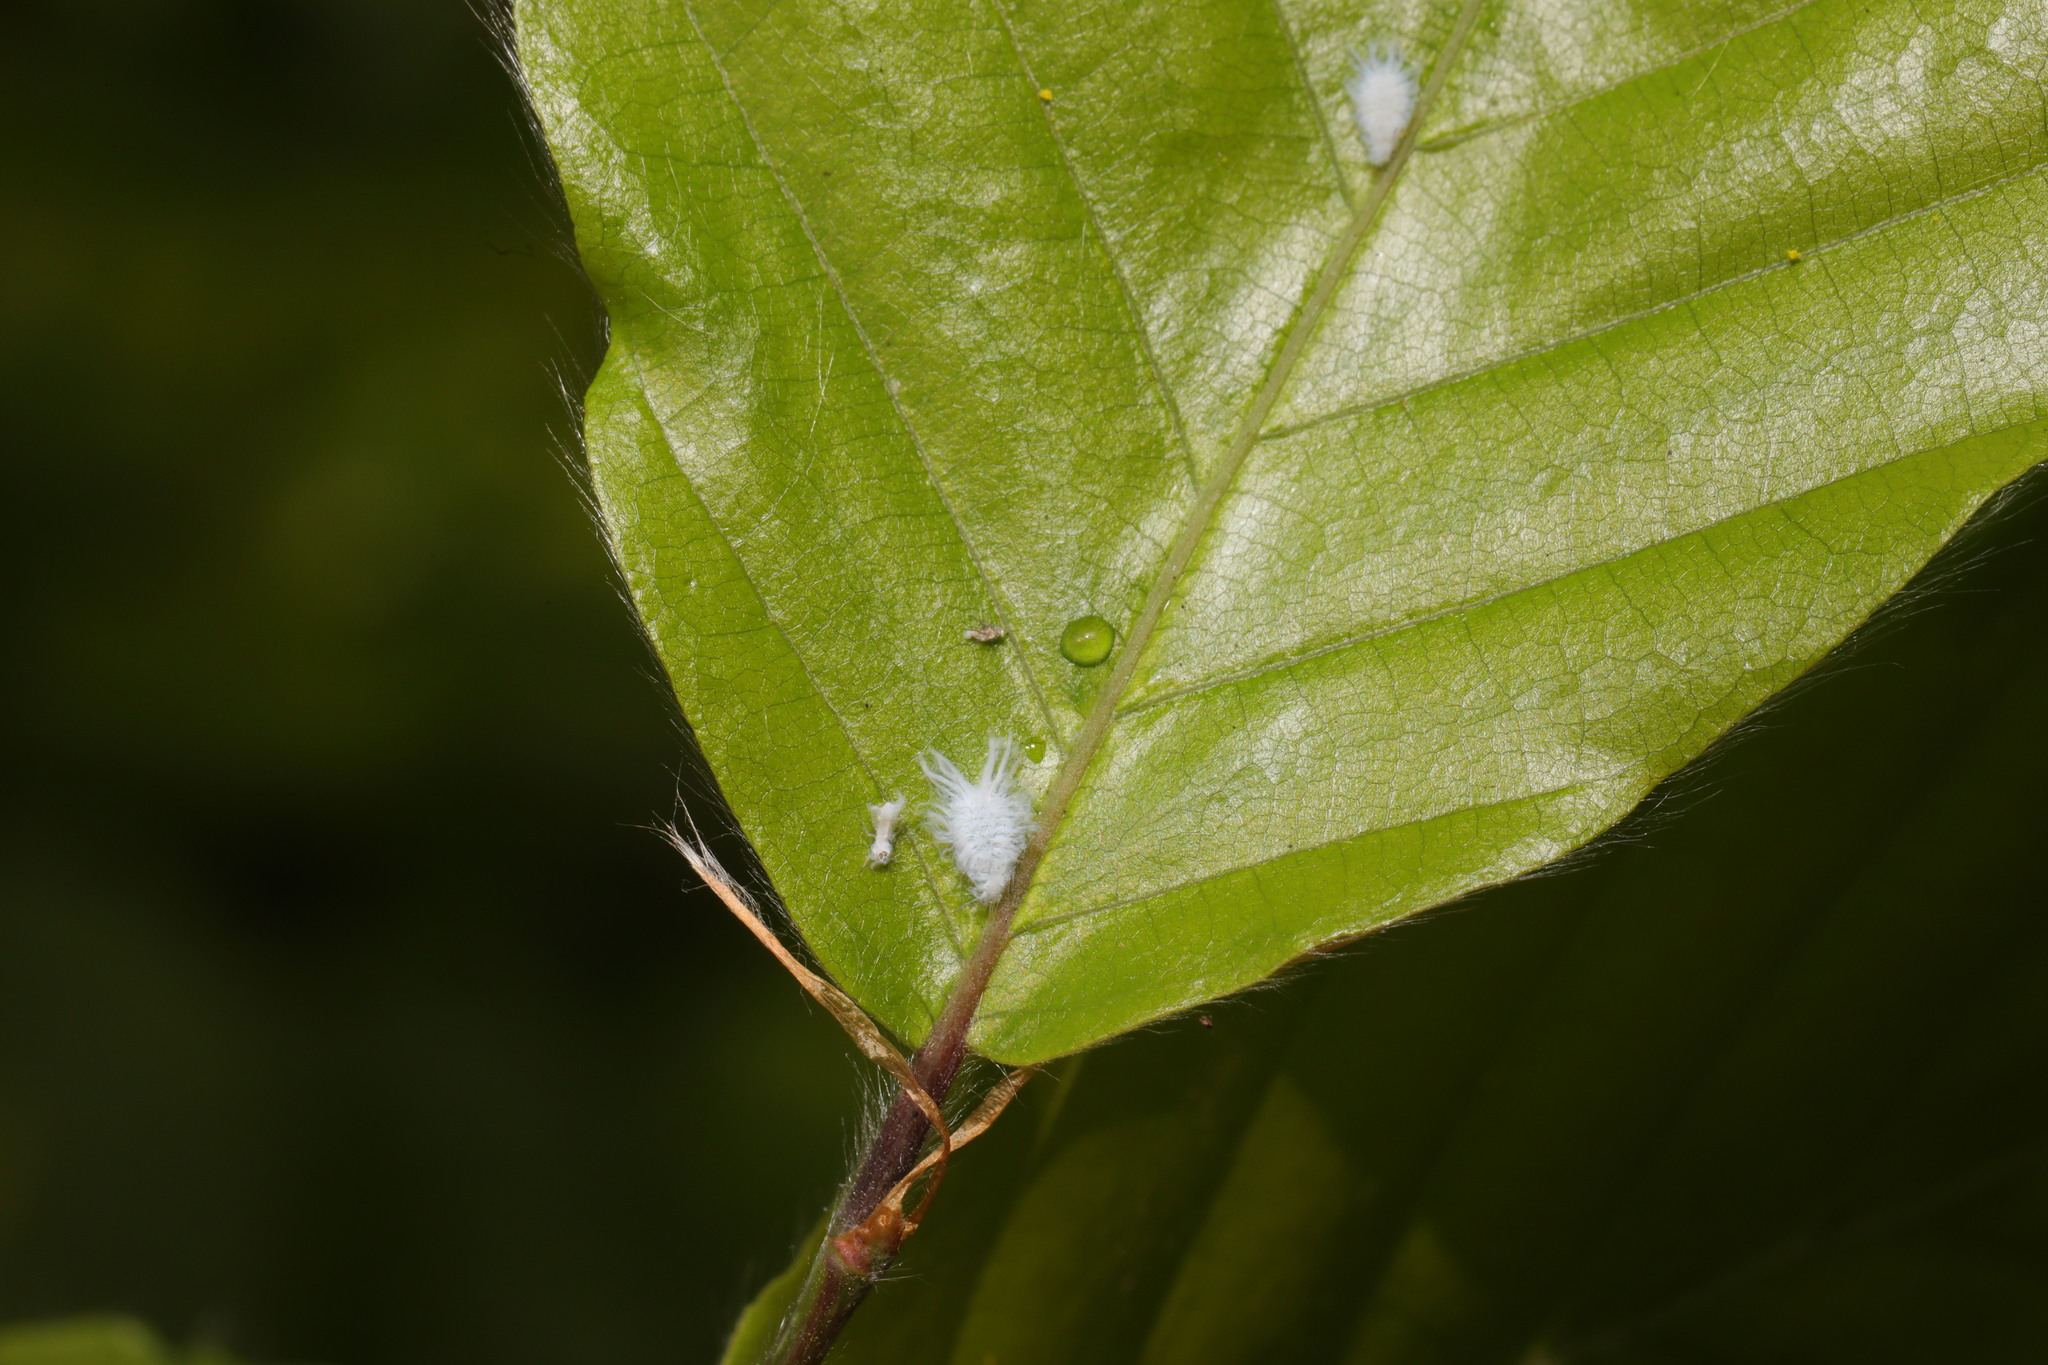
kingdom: Animalia
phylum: Arthropoda
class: Insecta
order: Hemiptera
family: Aphididae
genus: Phyllaphis
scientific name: Phyllaphis fagi
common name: Beech aphid
